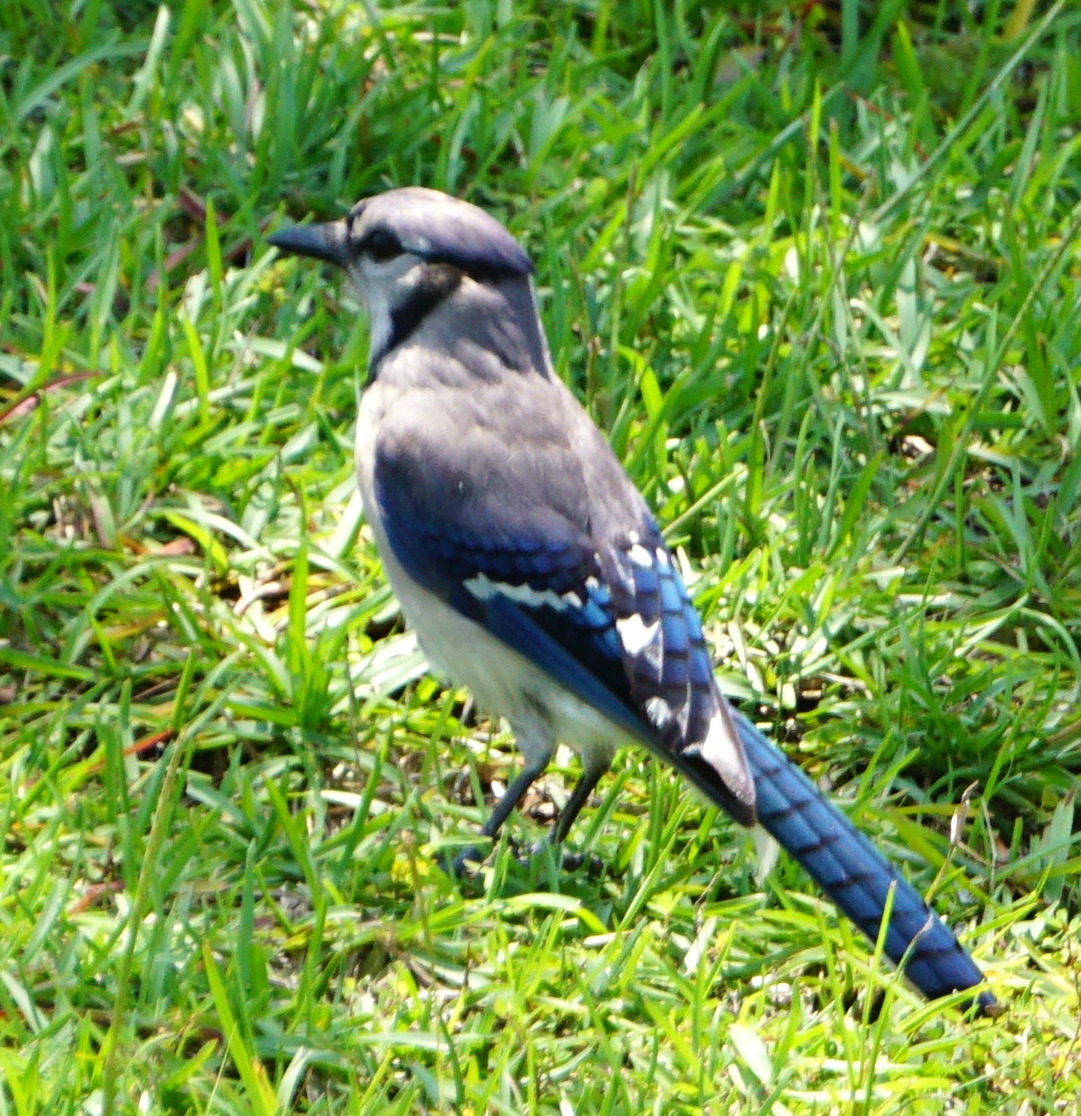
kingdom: Animalia
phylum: Chordata
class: Aves
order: Passeriformes
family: Corvidae
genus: Cyanocitta
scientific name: Cyanocitta cristata
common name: Blue jay
